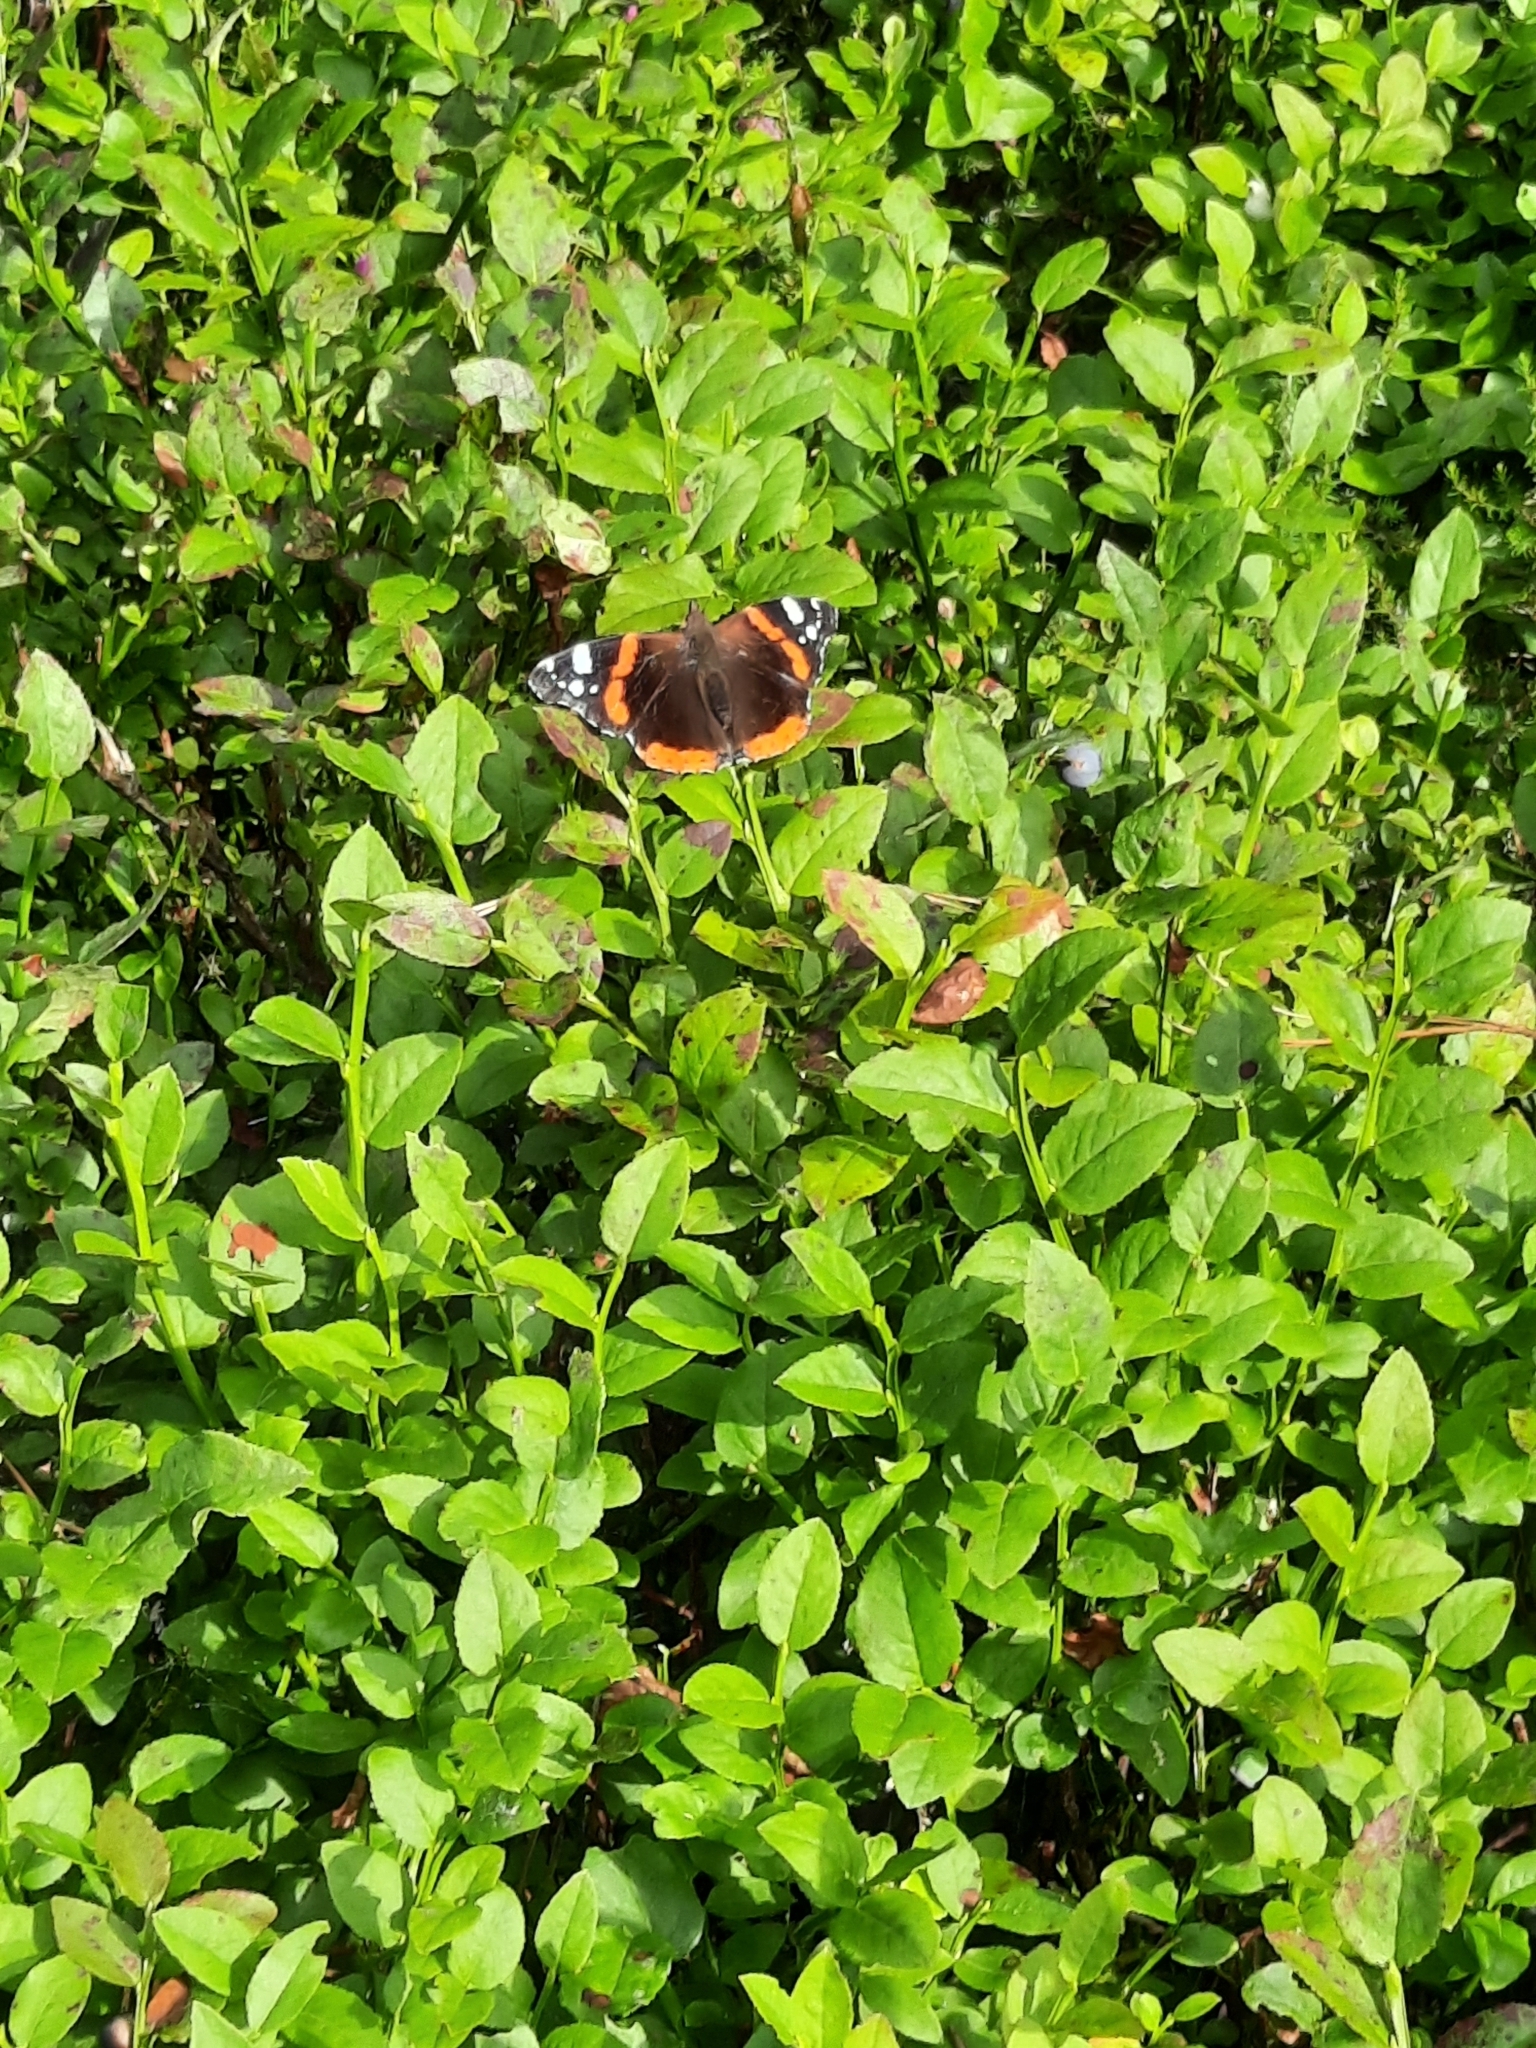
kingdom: Animalia
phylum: Arthropoda
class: Insecta
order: Lepidoptera
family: Nymphalidae
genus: Vanessa
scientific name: Vanessa atalanta
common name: Red admiral
